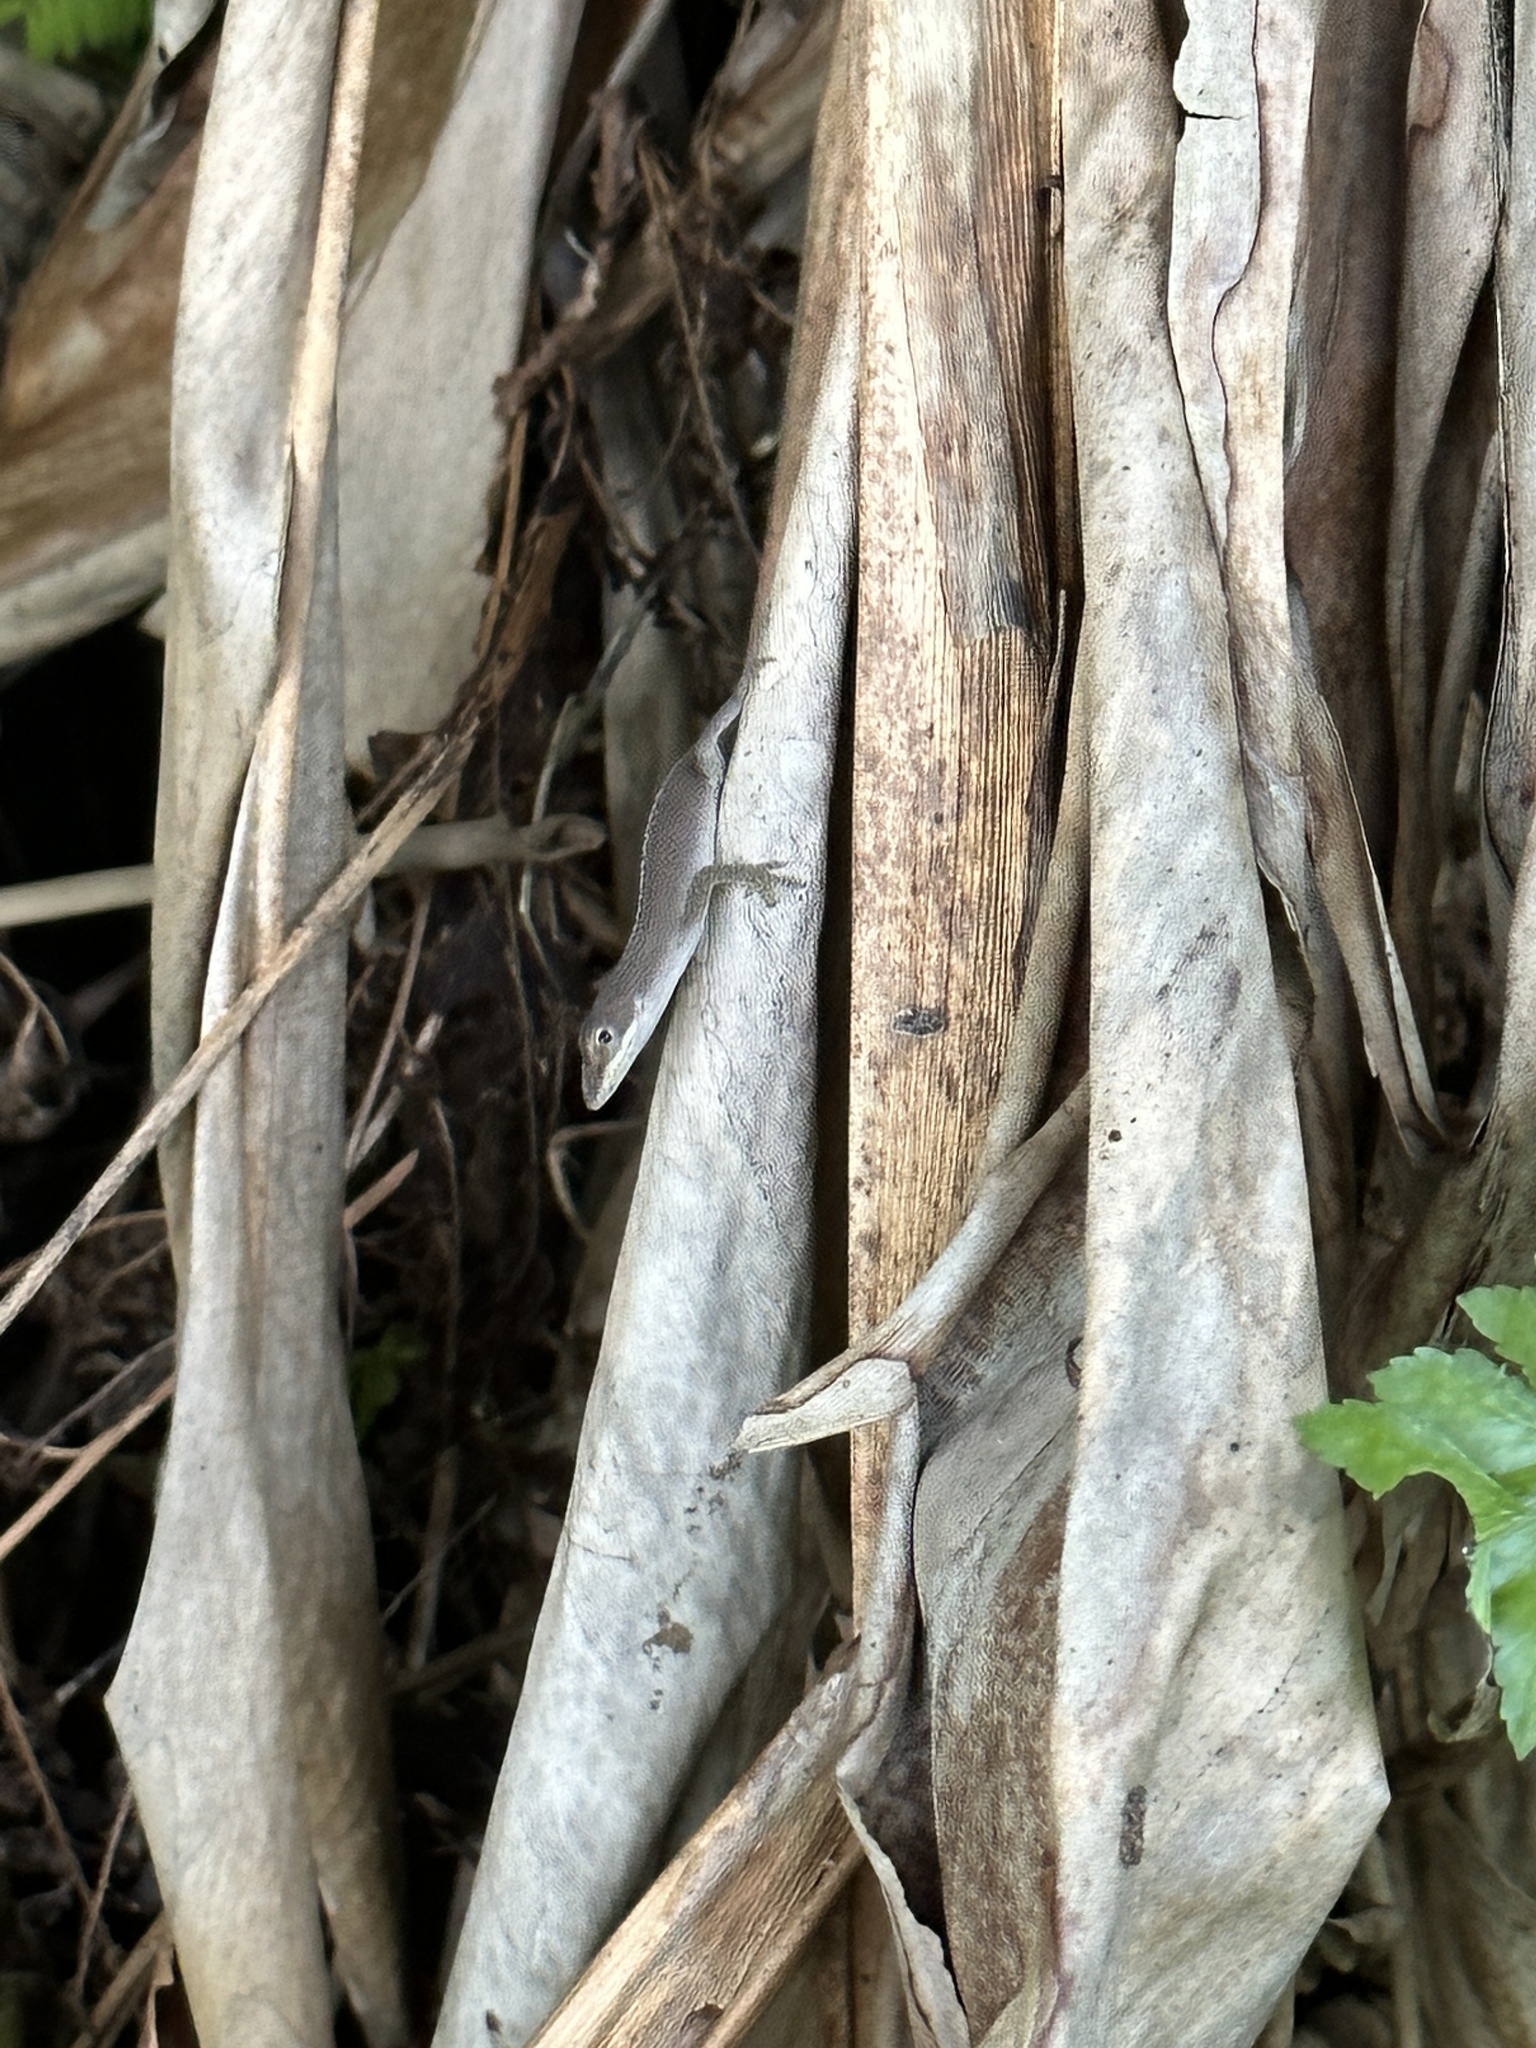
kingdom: Animalia
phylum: Chordata
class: Squamata
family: Dactyloidae
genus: Anolis
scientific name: Anolis carolinensis
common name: Green anole
